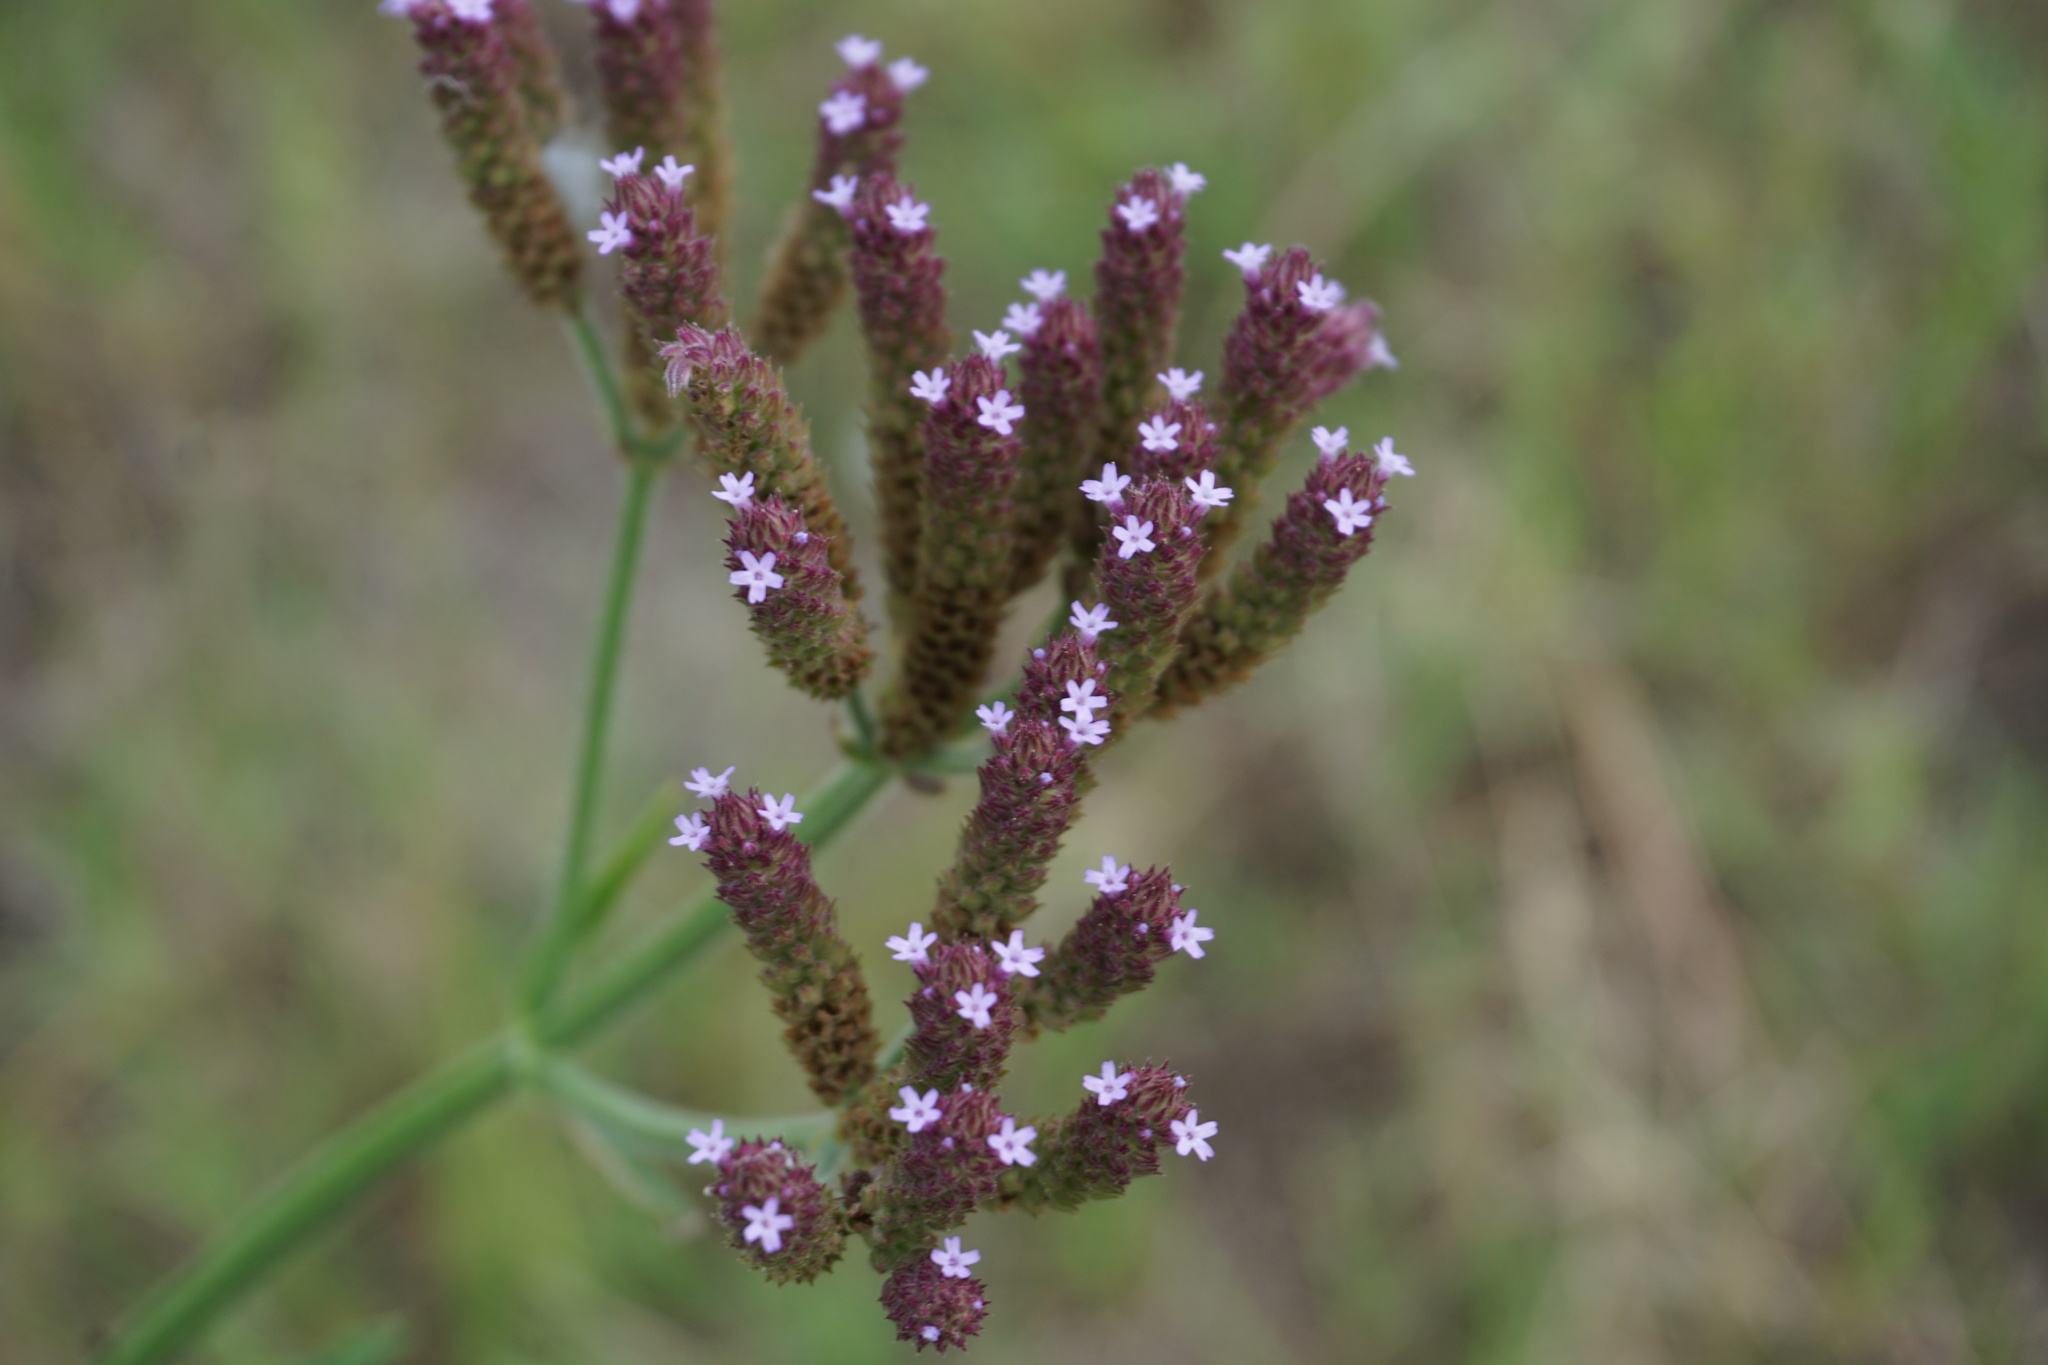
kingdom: Plantae
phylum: Tracheophyta
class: Magnoliopsida
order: Lamiales
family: Verbenaceae
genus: Verbena
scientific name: Verbena brasiliensis
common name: Brazilian vervain
